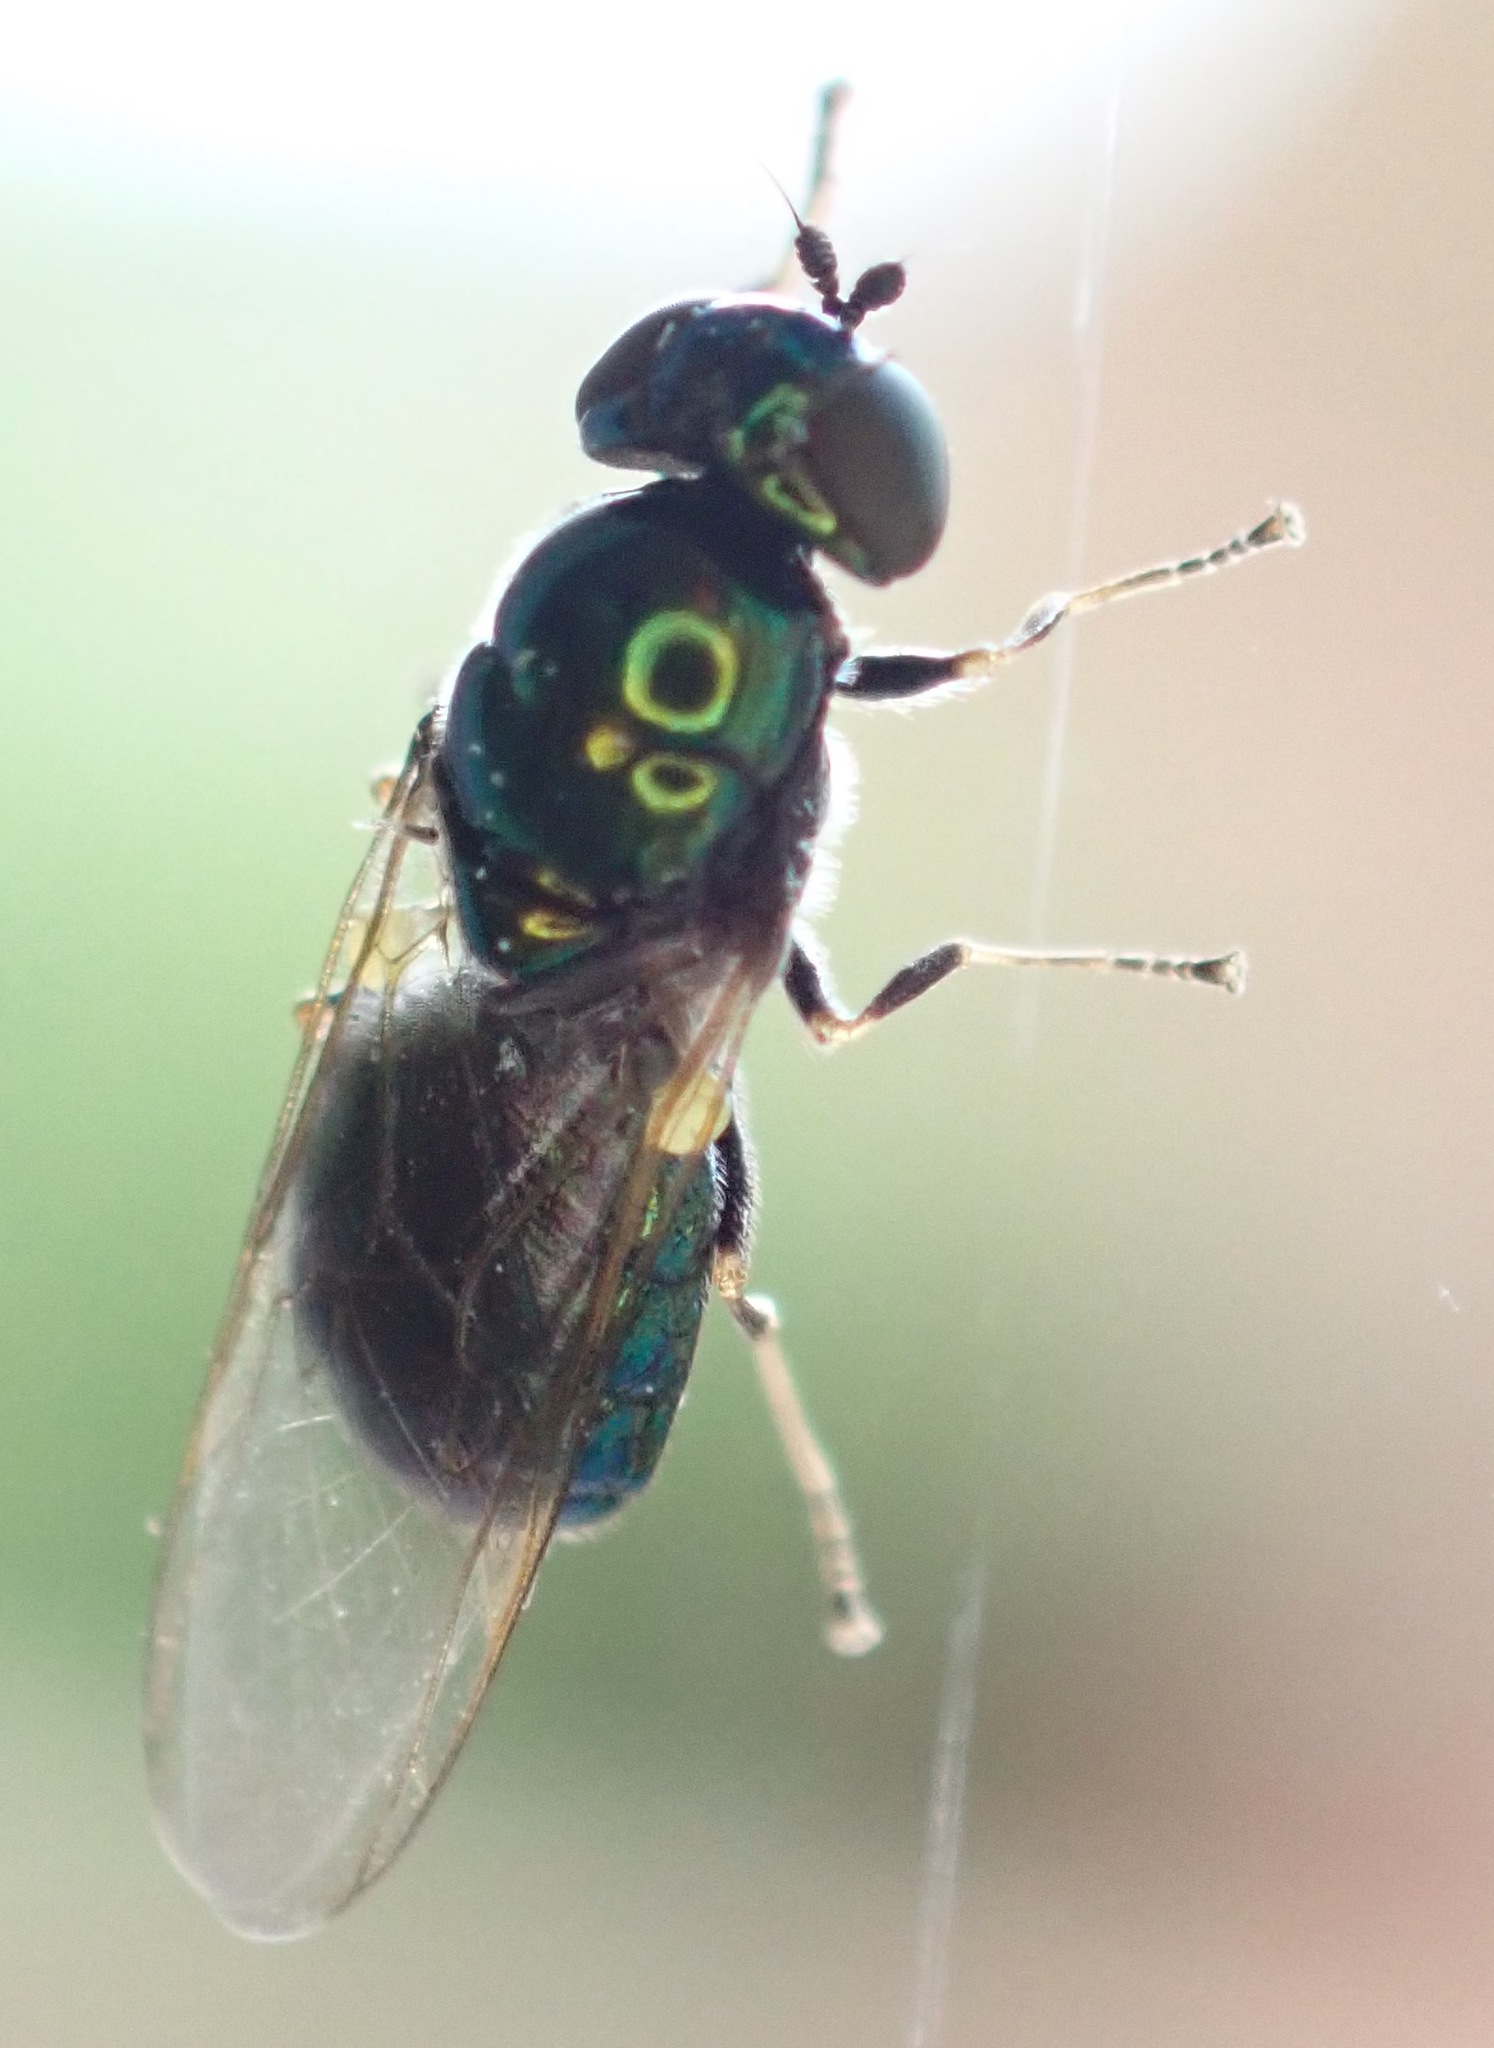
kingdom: Animalia
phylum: Arthropoda
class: Insecta
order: Diptera
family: Stratiomyidae
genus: Microchrysa
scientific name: Microchrysa polita
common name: Black-horned gem
